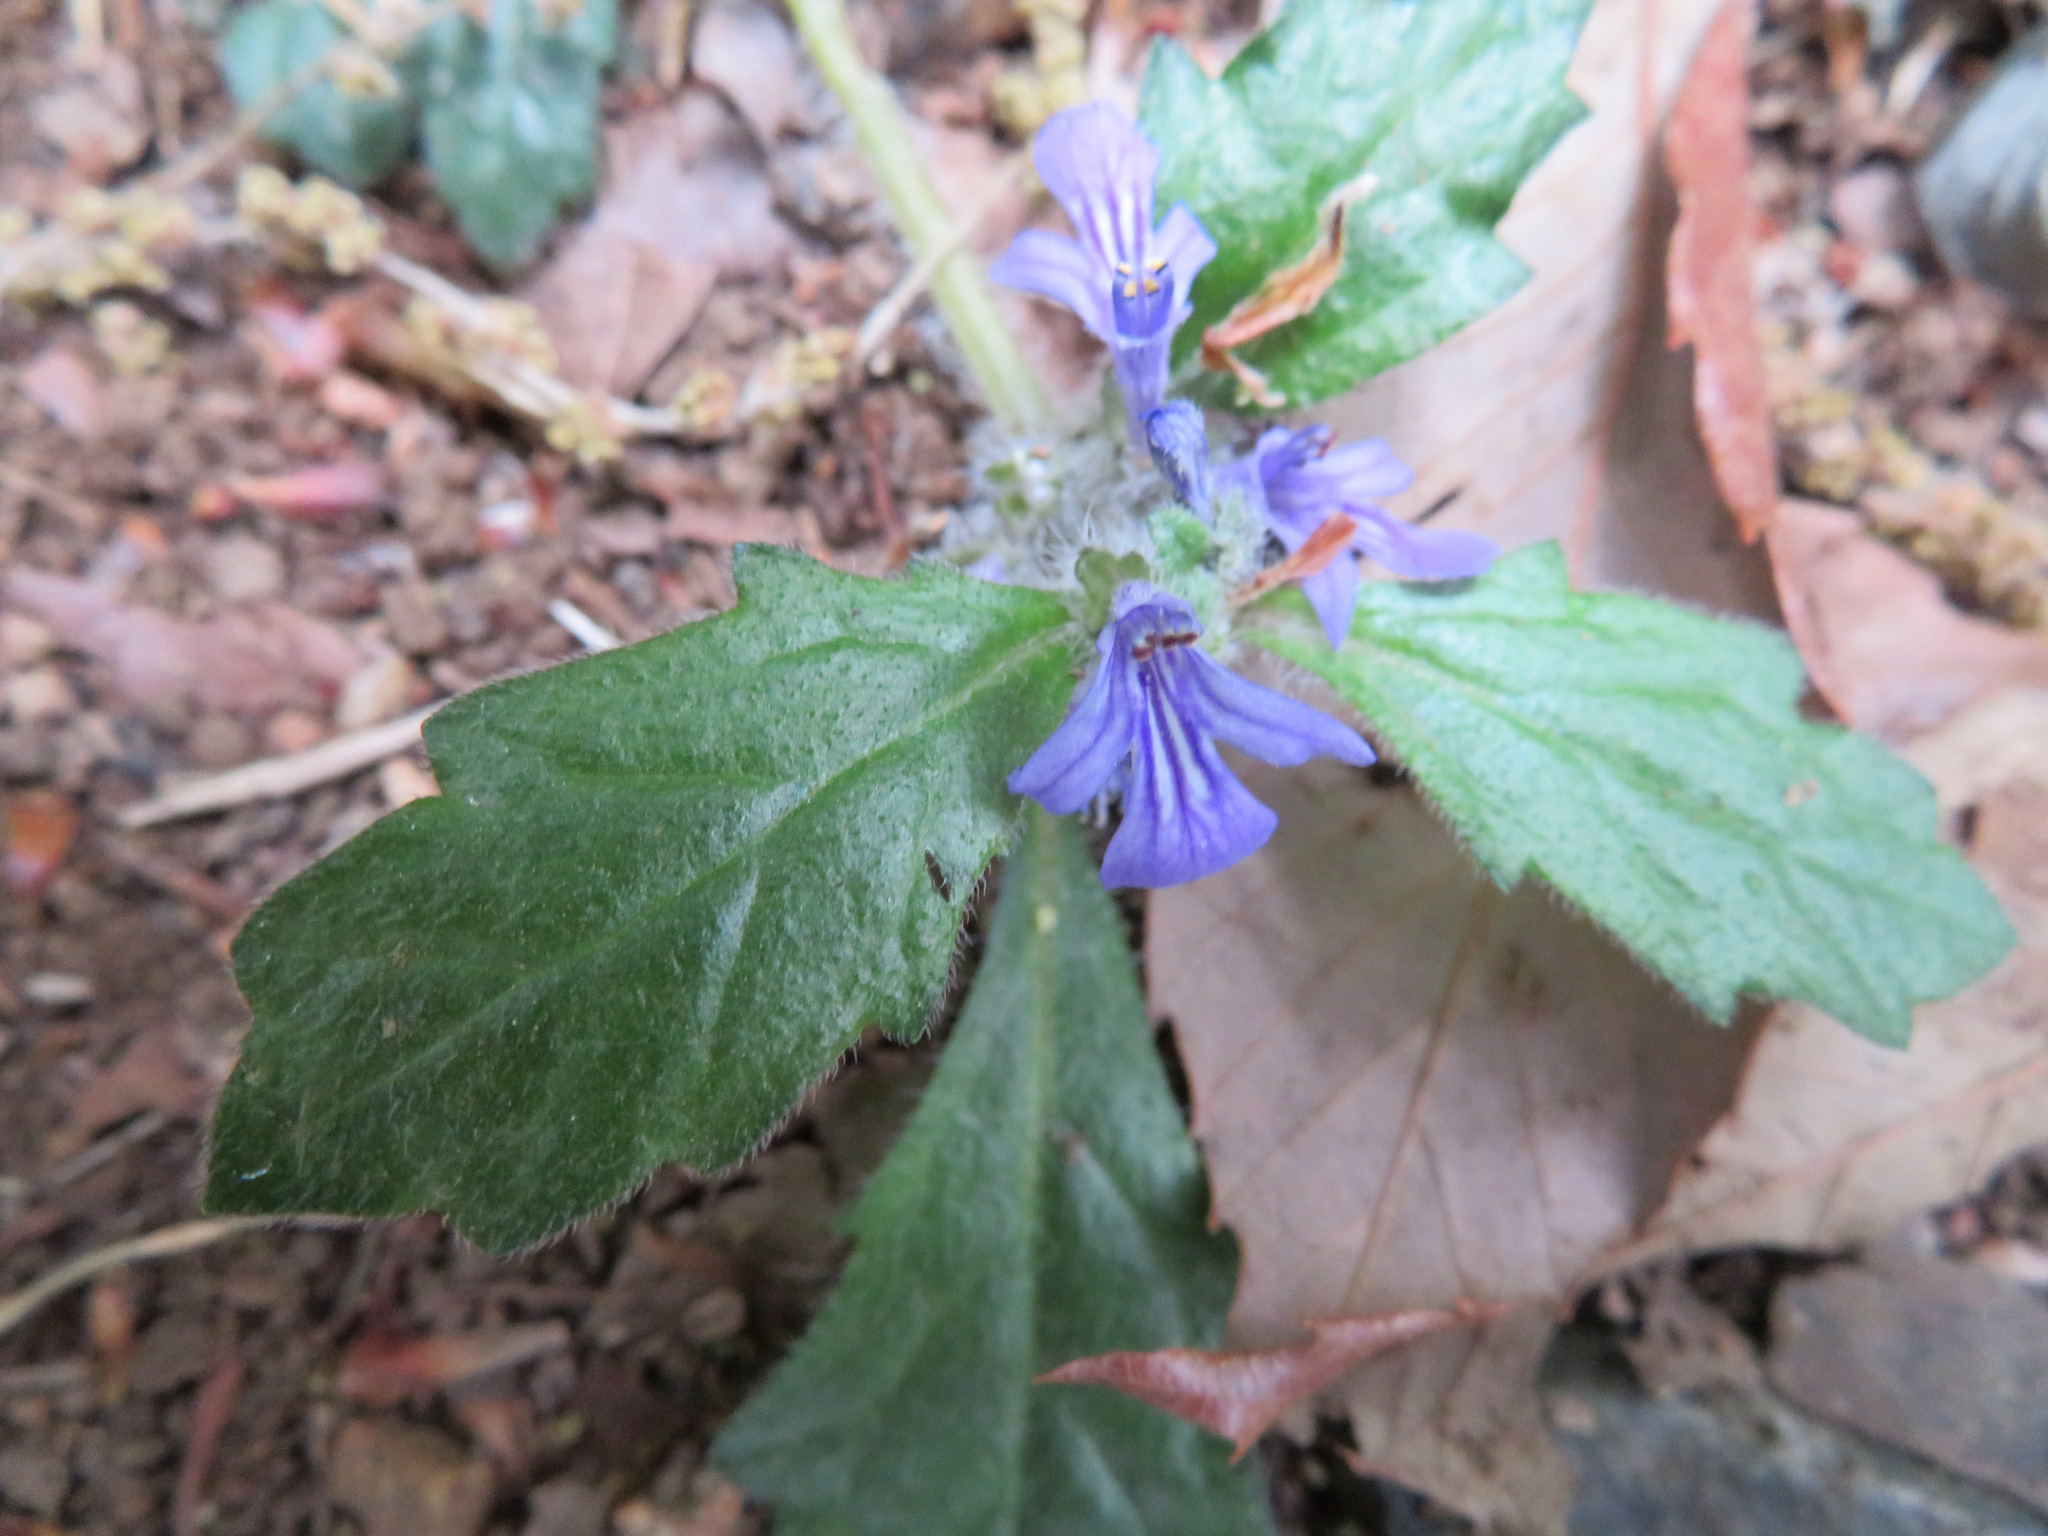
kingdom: Plantae
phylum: Tracheophyta
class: Magnoliopsida
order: Lamiales
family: Lamiaceae
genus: Ajuga
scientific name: Ajuga decumbens
